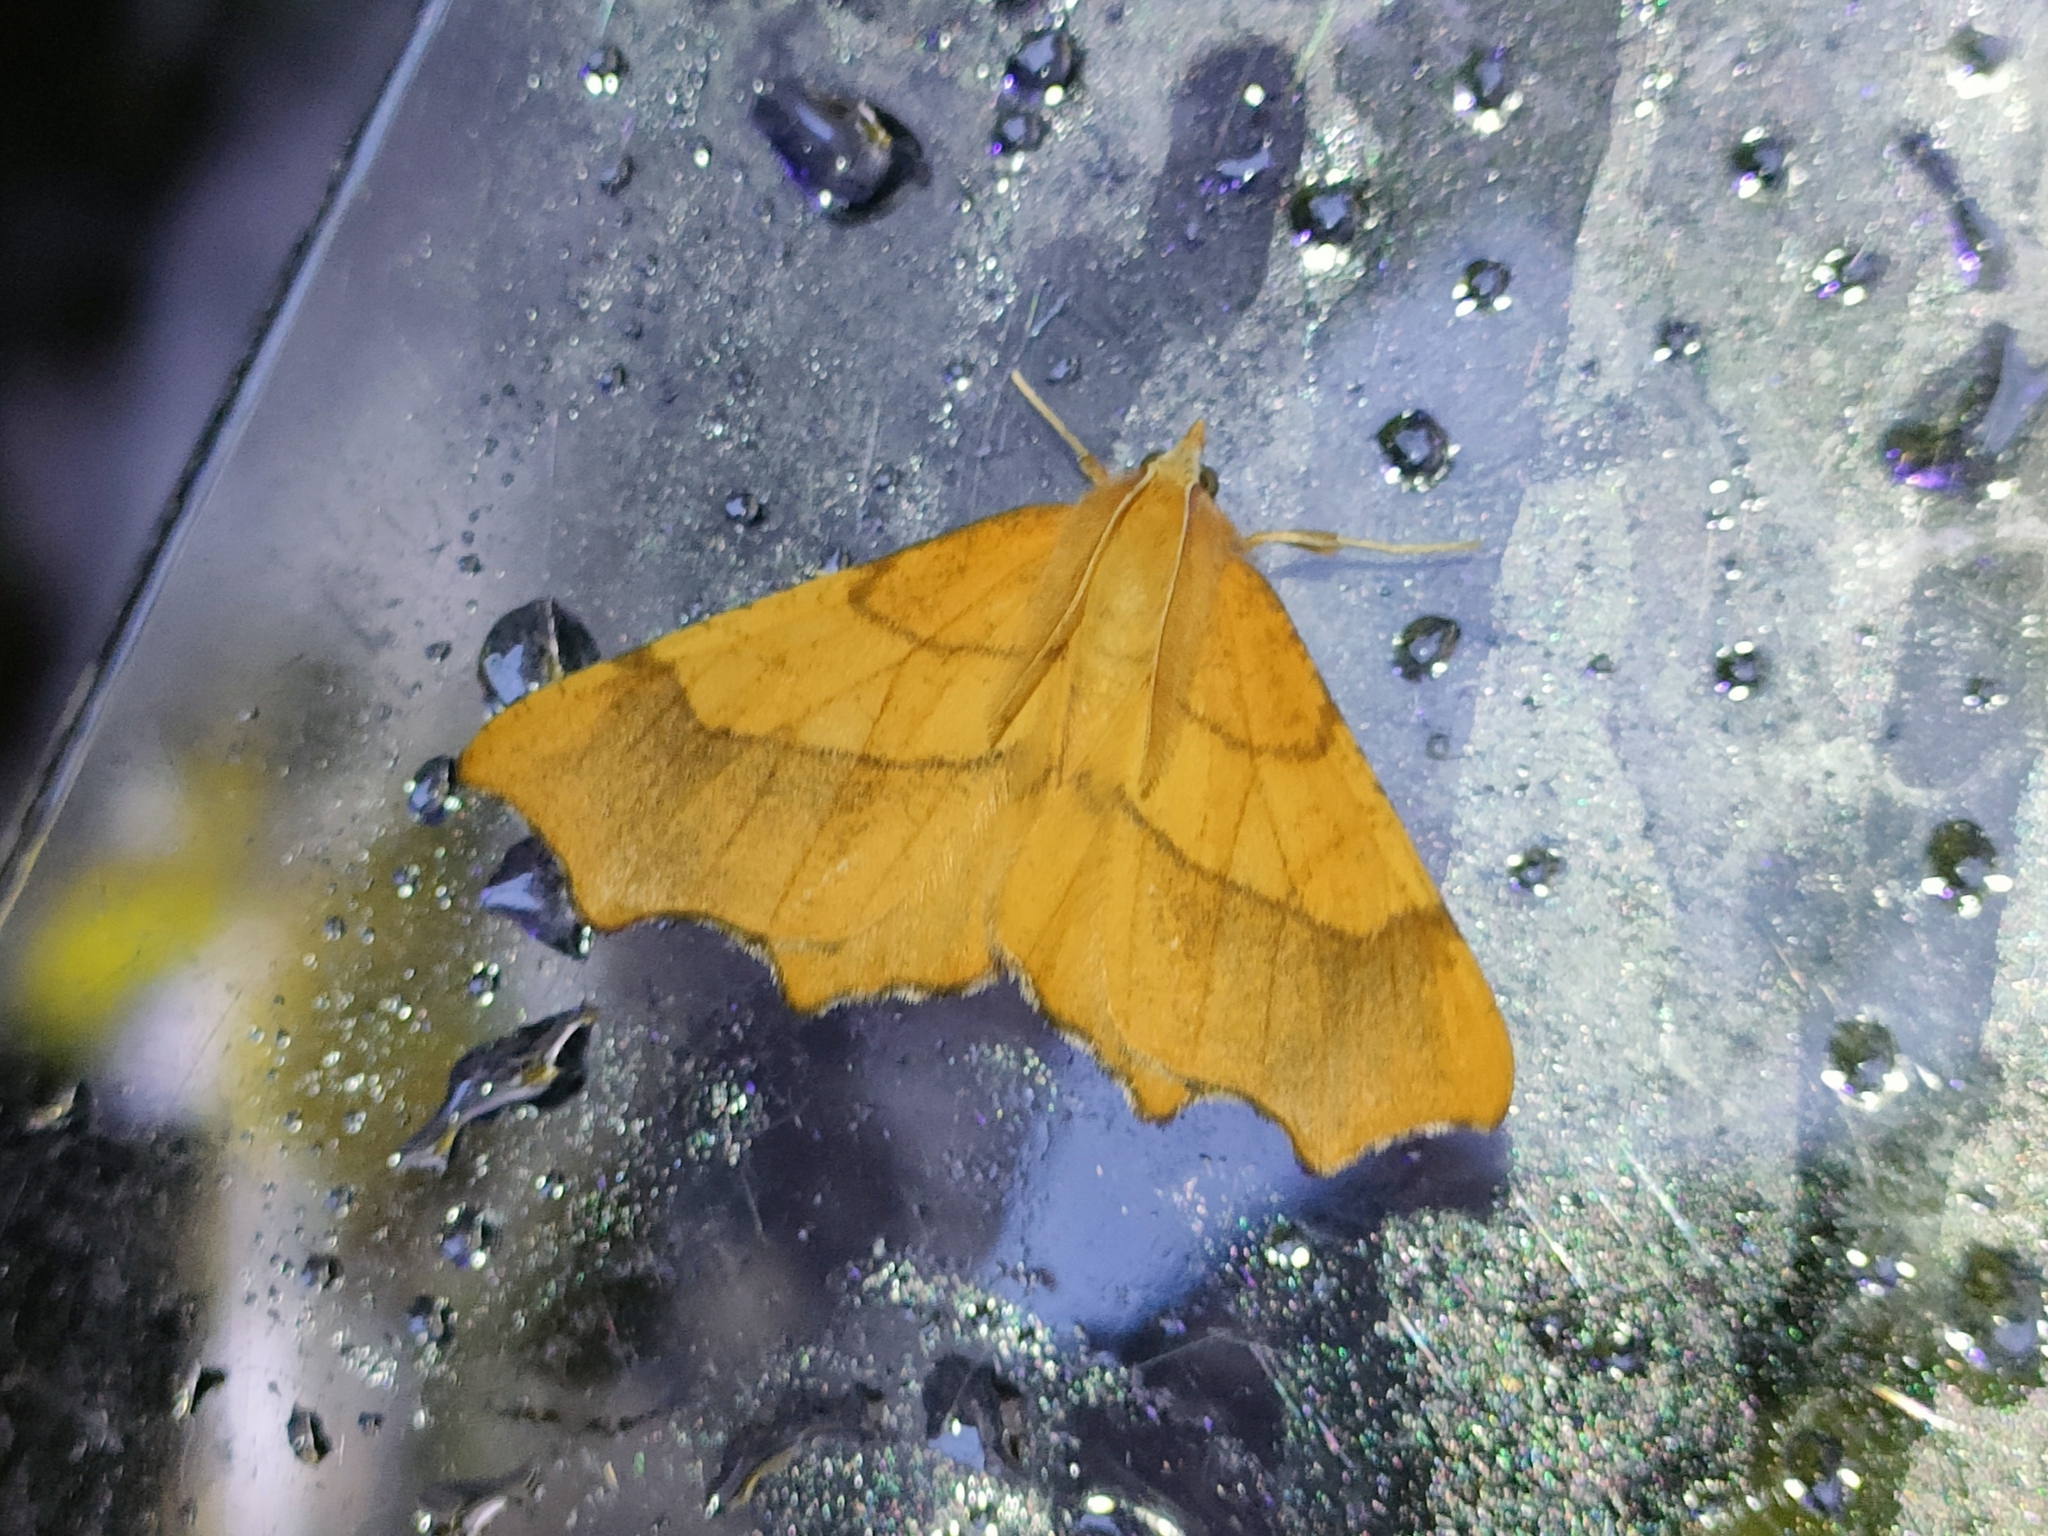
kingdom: Animalia
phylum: Arthropoda
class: Insecta
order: Lepidoptera
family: Geometridae
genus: Ennomos
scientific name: Ennomos quercinaria
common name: August thorn
